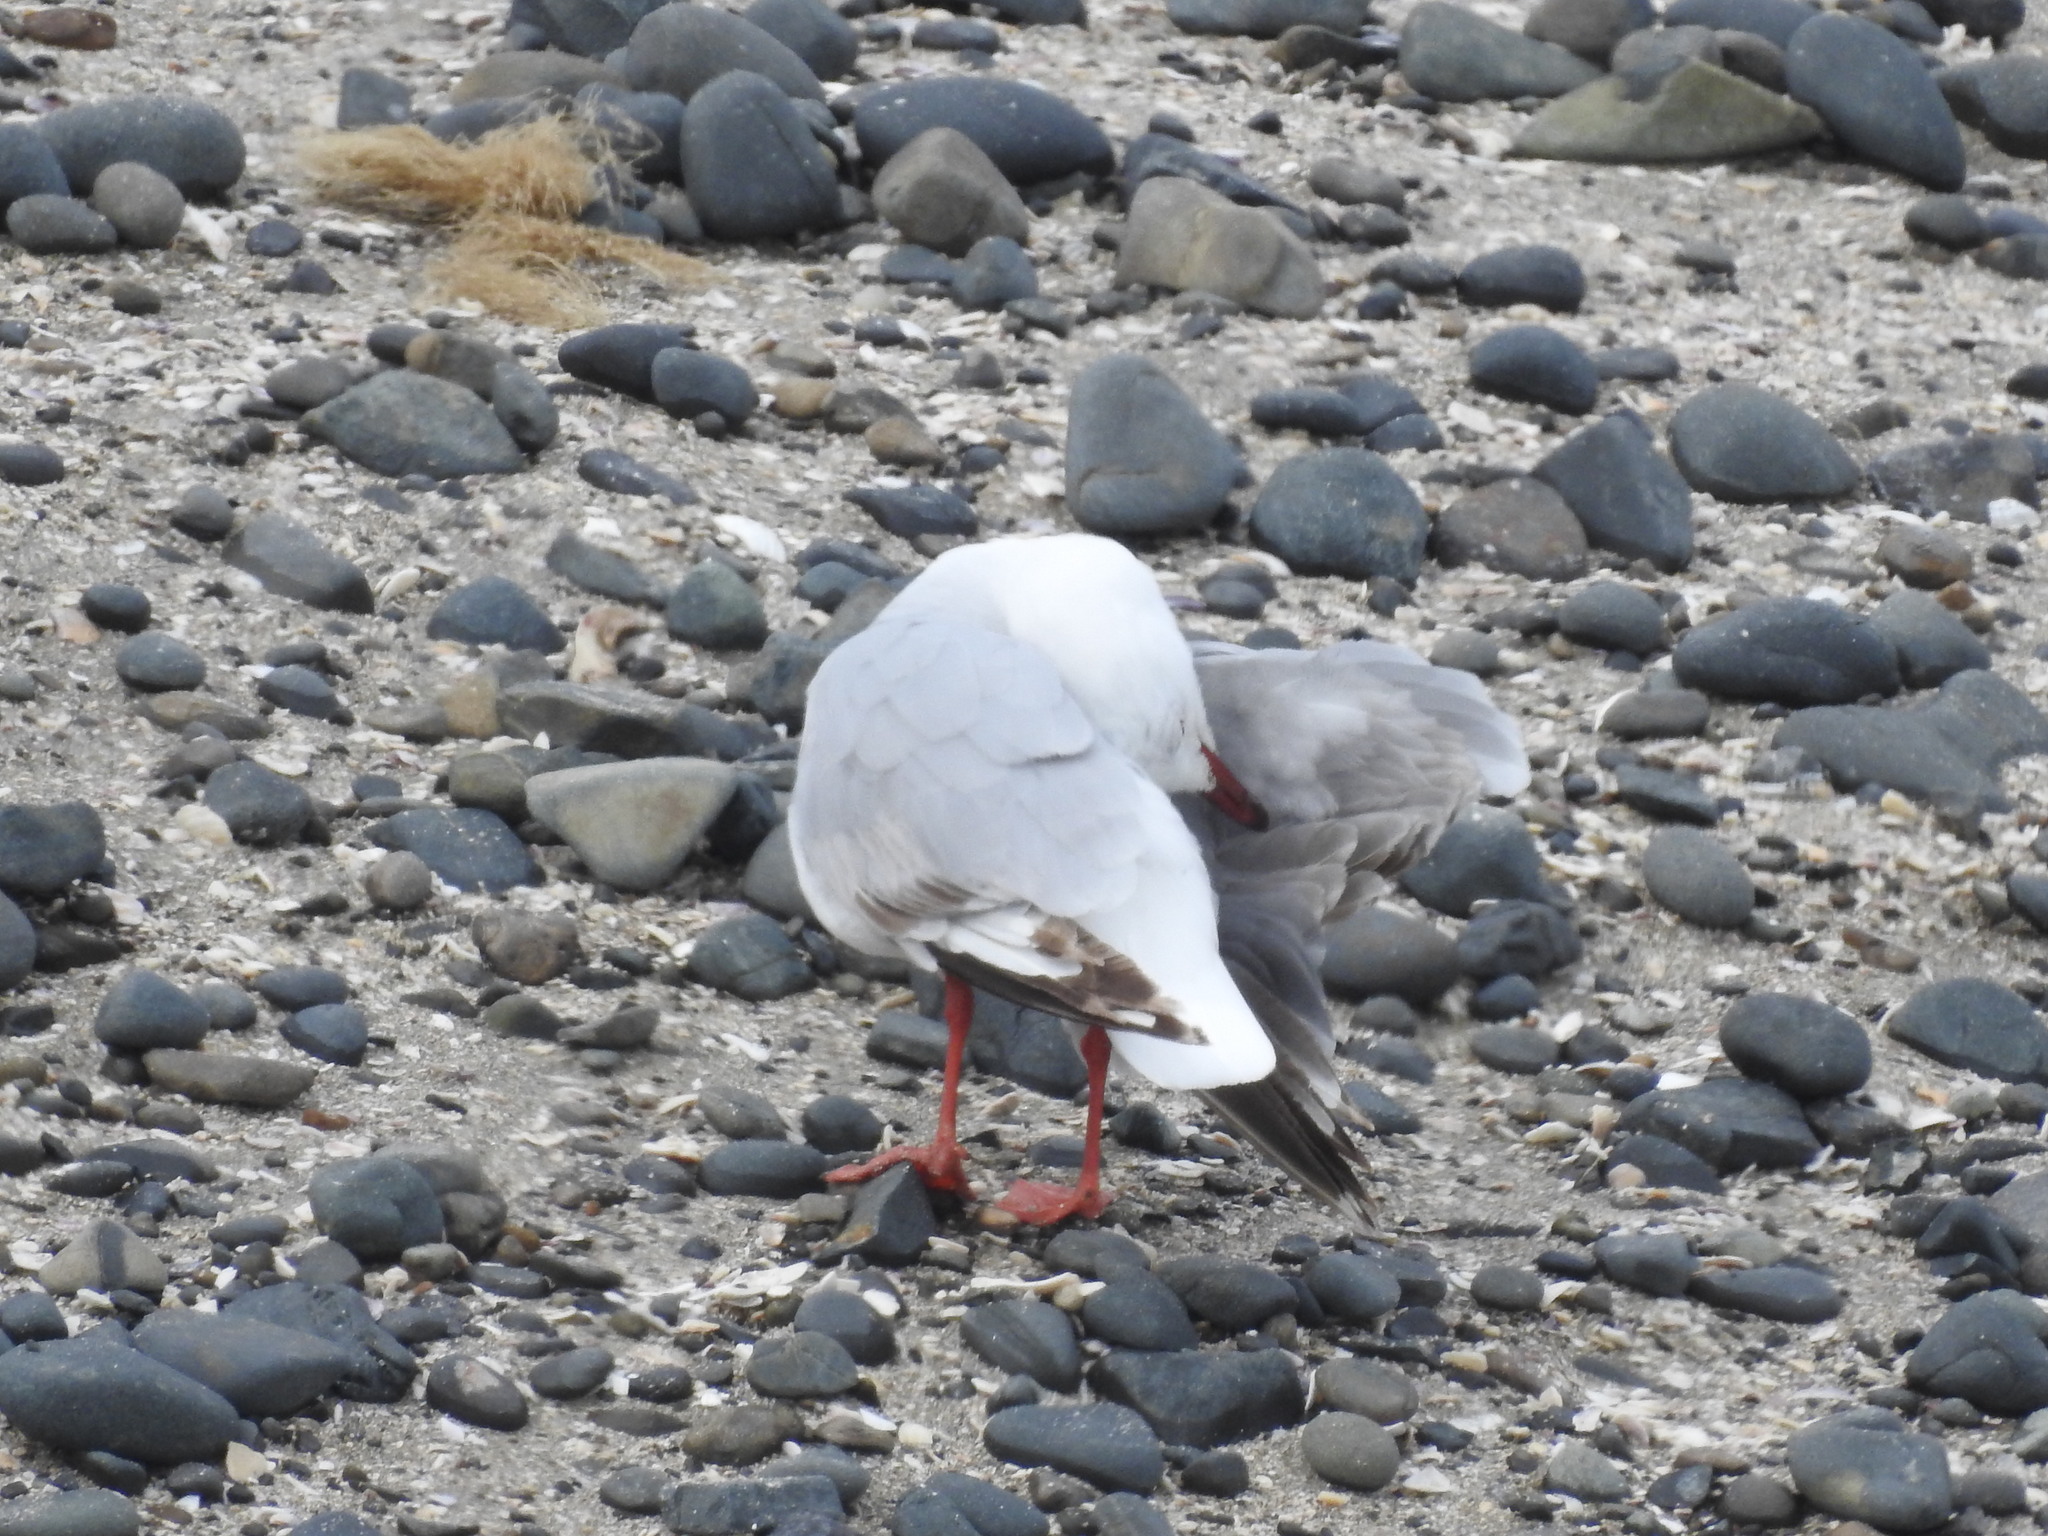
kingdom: Animalia
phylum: Chordata
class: Aves
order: Charadriiformes
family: Laridae
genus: Chroicocephalus
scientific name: Chroicocephalus novaehollandiae
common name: Silver gull
